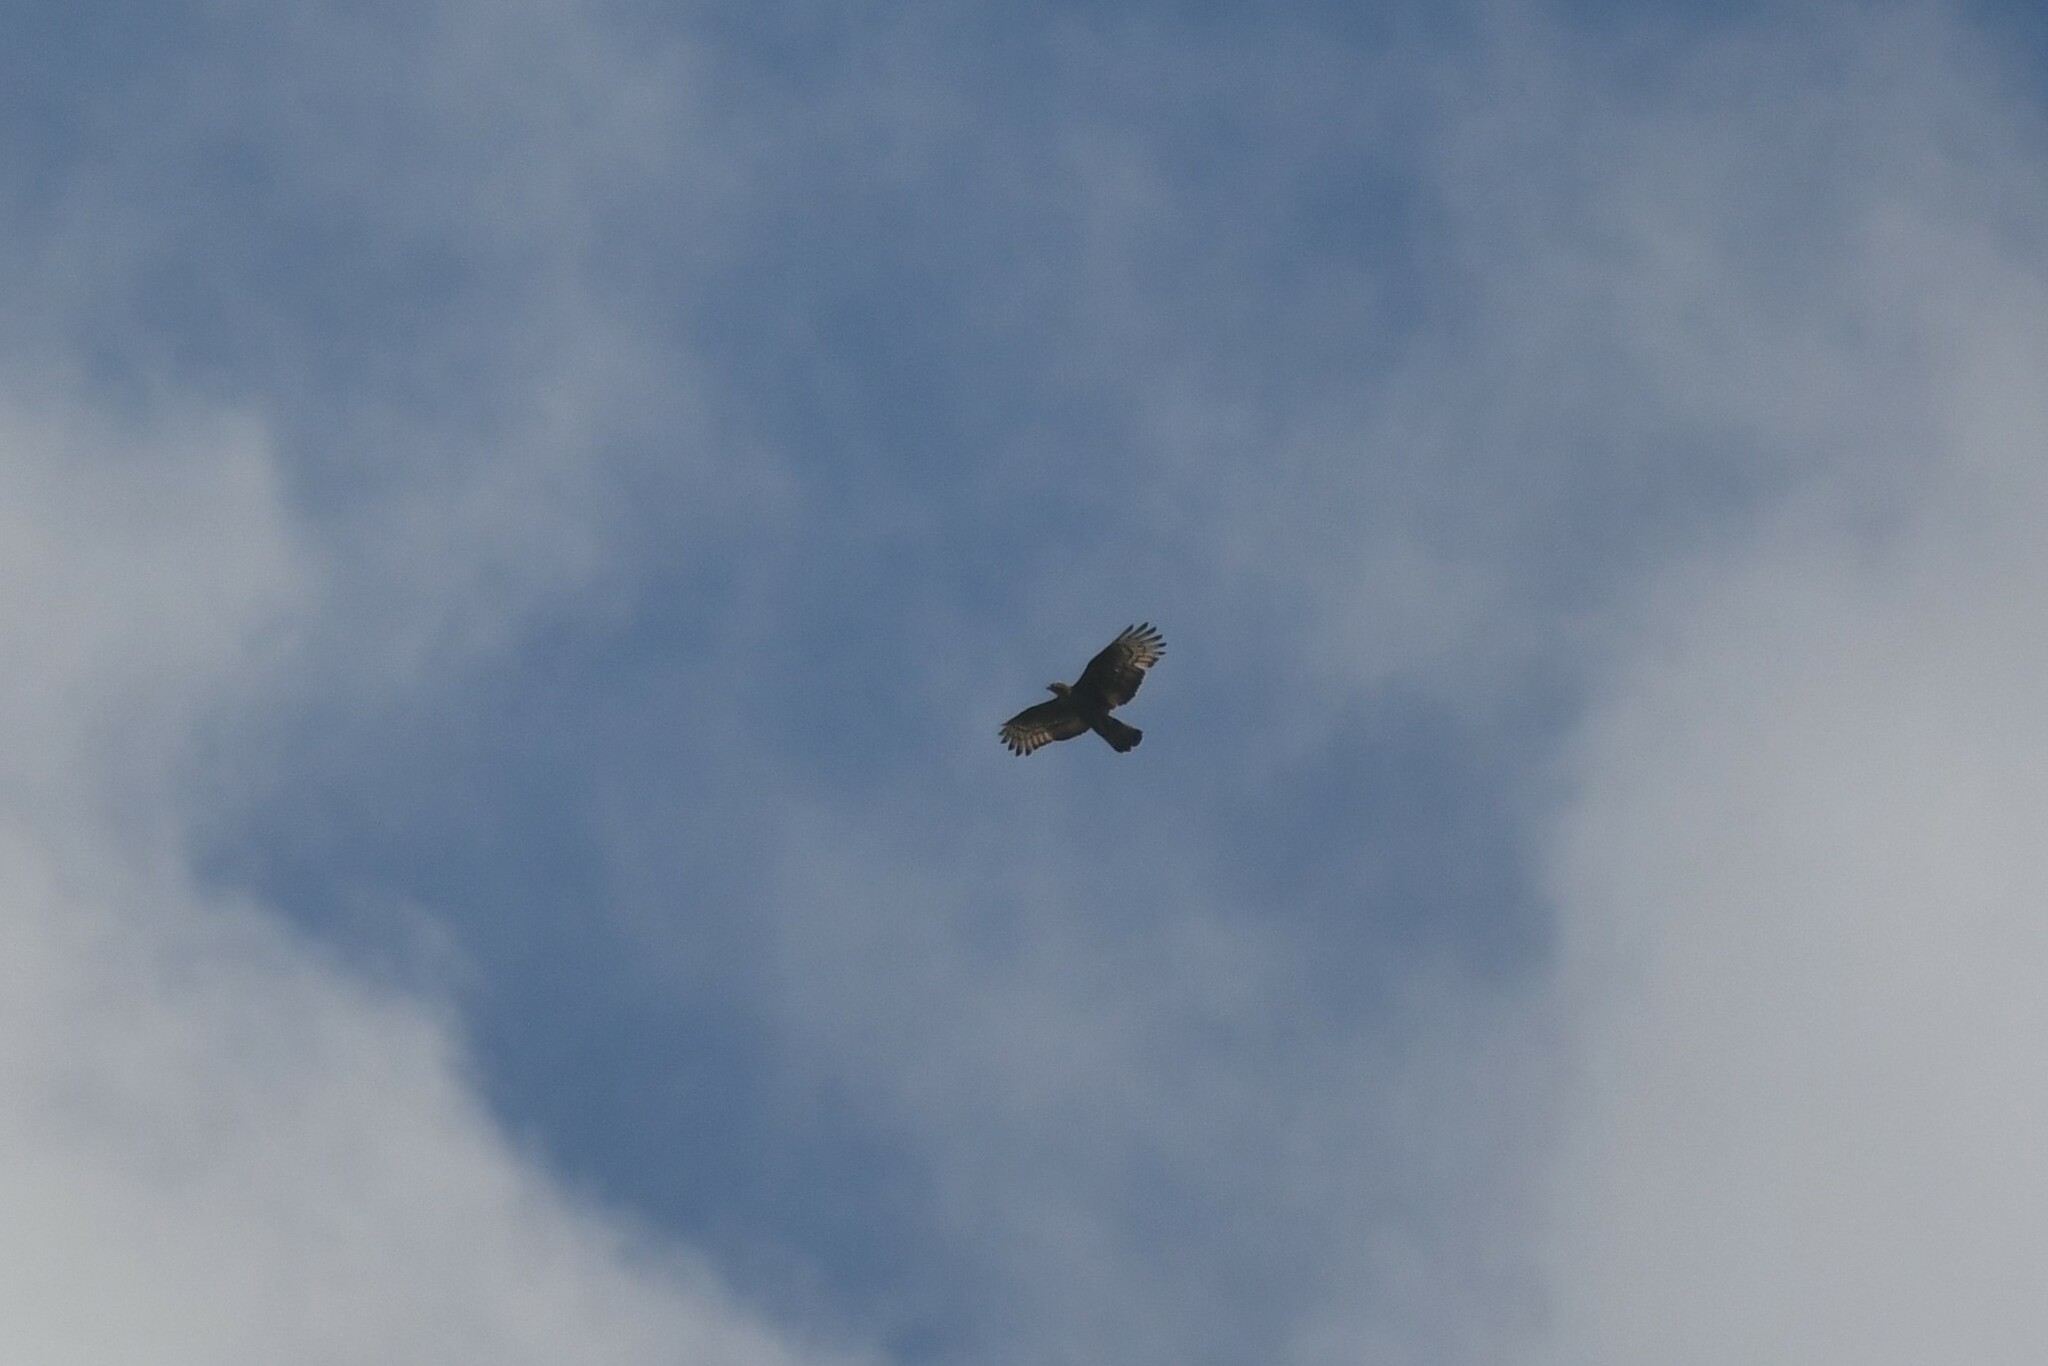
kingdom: Animalia
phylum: Chordata
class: Aves
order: Accipitriformes
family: Accipitridae
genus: Pernis
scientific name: Pernis ptilorhynchus
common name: Crested honey buzzard
